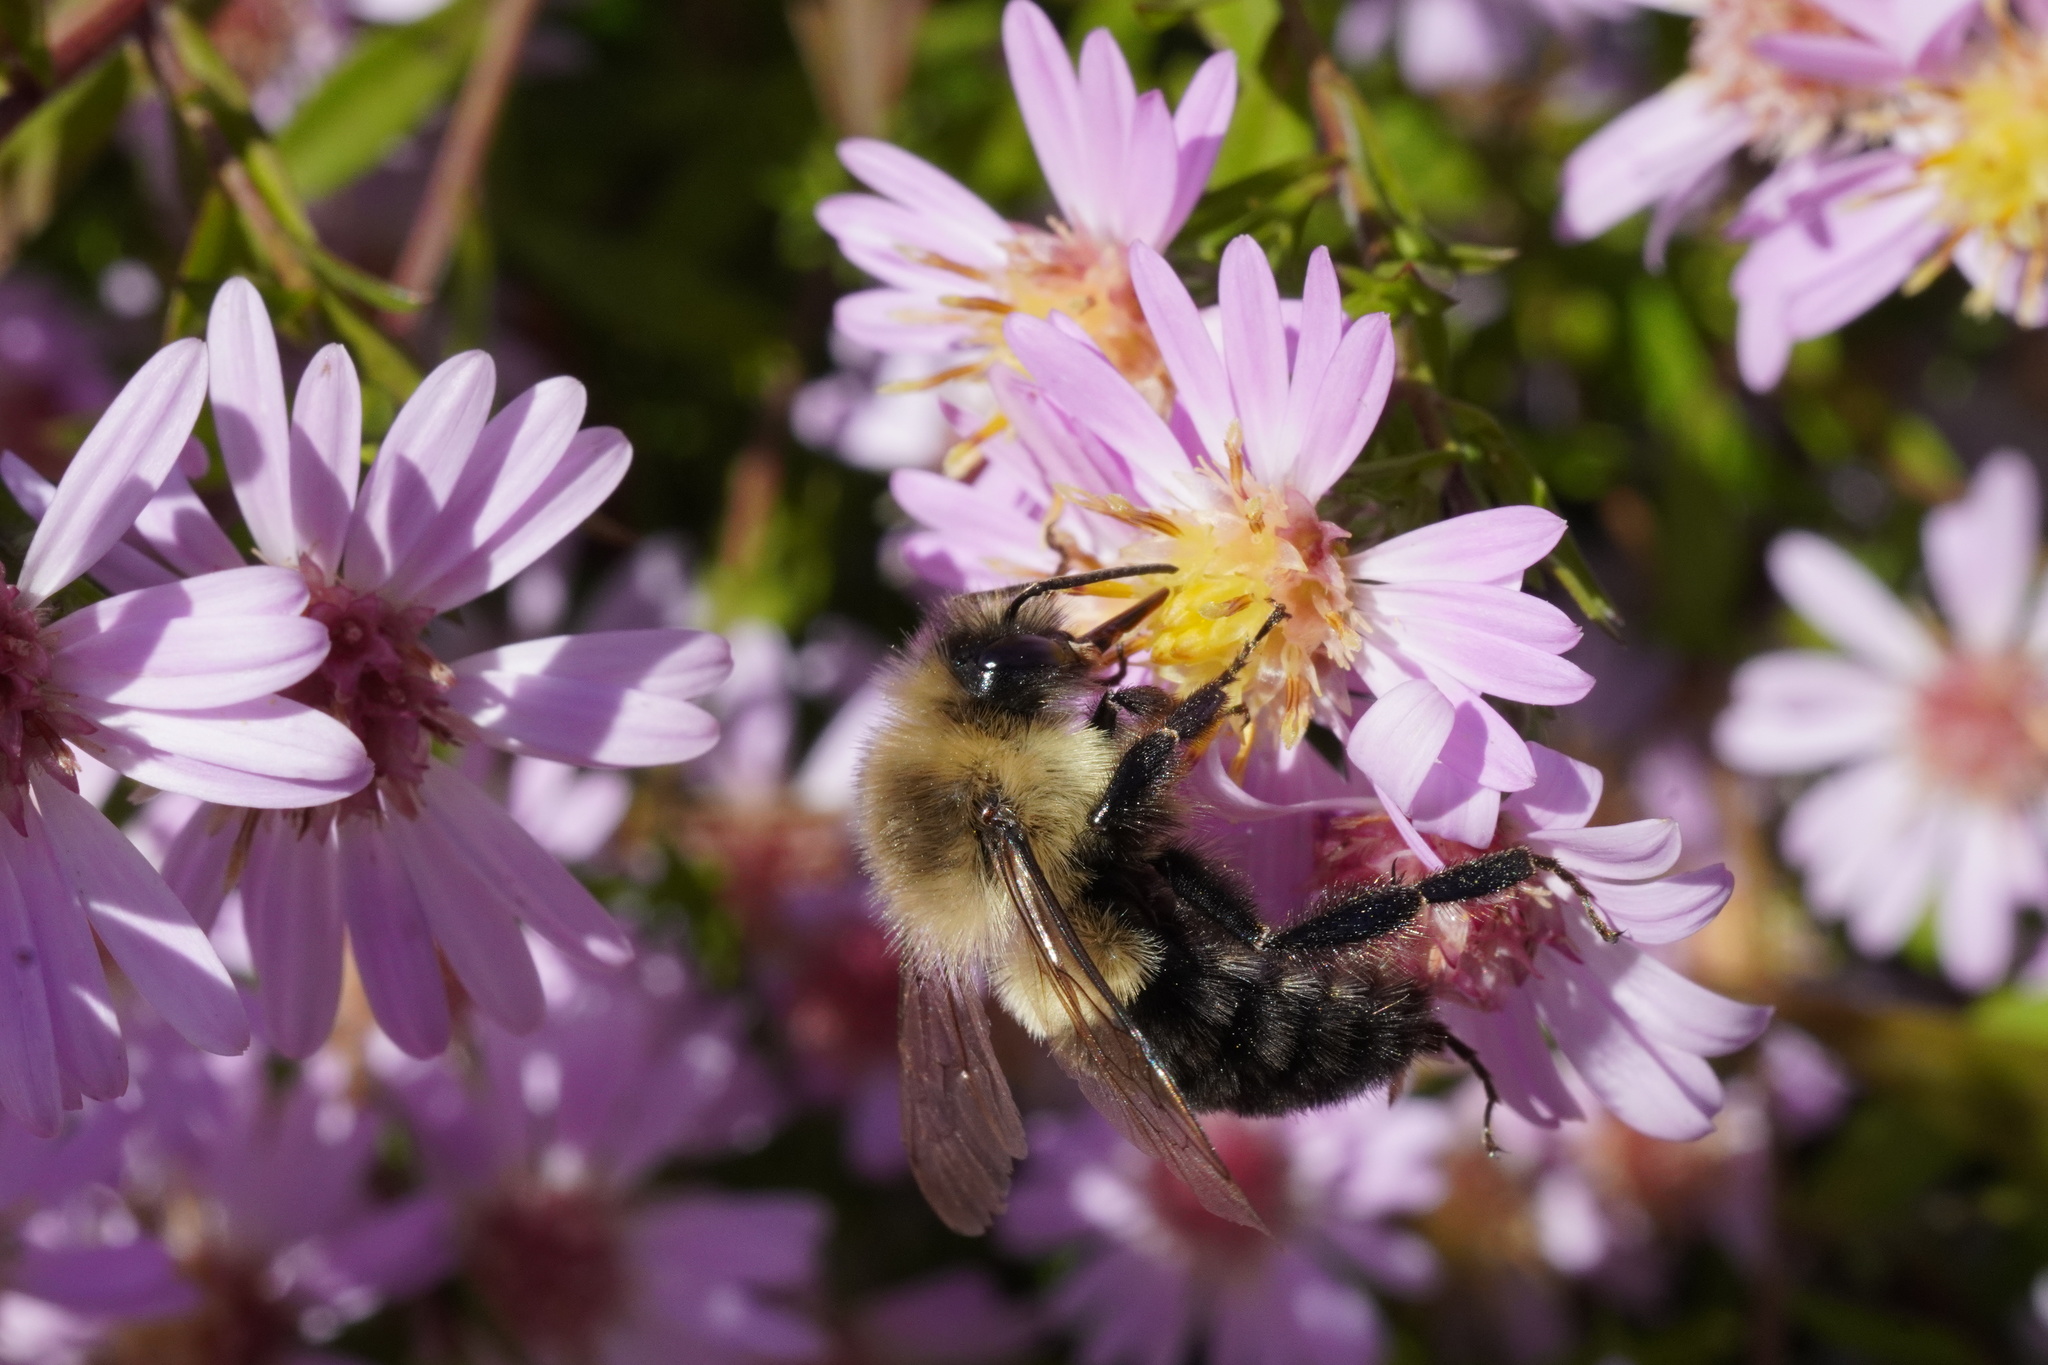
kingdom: Animalia
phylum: Arthropoda
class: Insecta
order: Hymenoptera
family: Apidae
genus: Bombus
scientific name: Bombus impatiens
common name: Common eastern bumble bee
